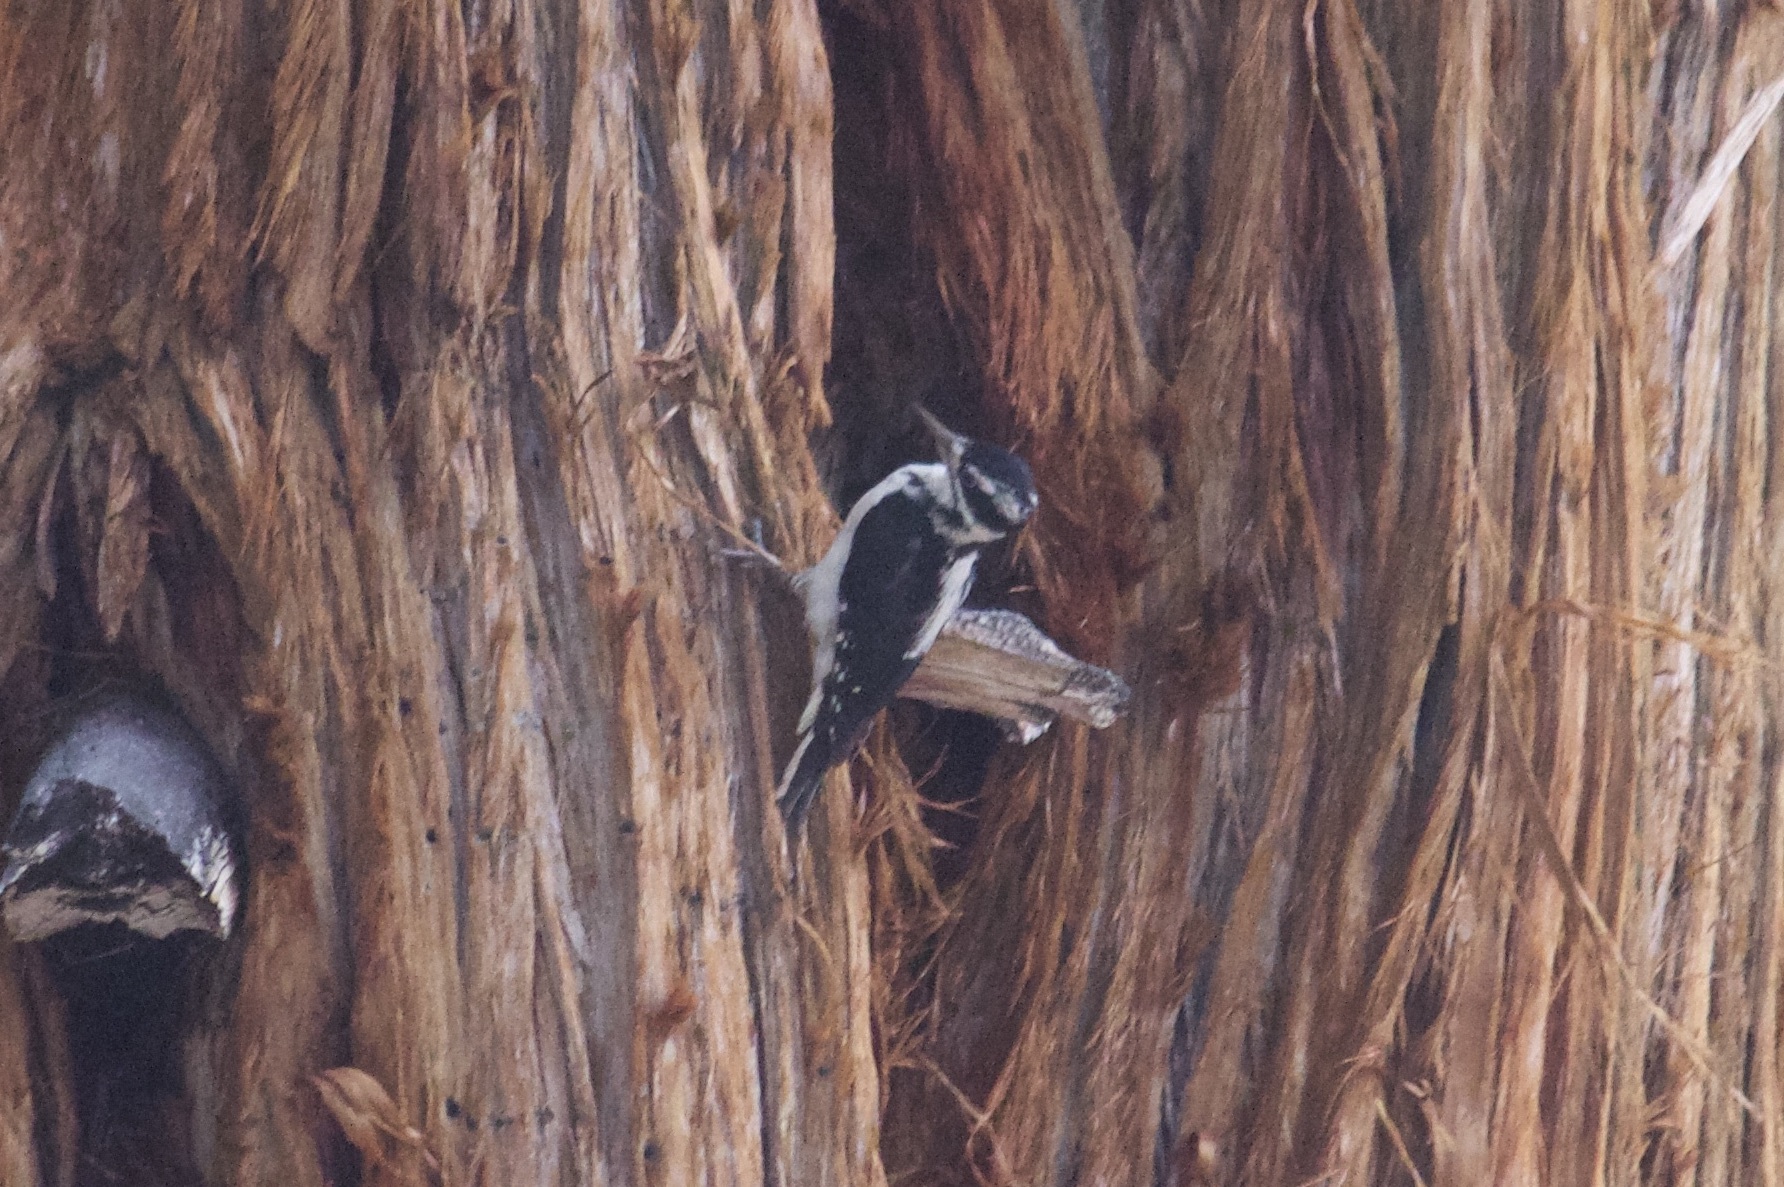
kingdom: Animalia
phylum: Chordata
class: Aves
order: Piciformes
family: Picidae
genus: Leuconotopicus
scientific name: Leuconotopicus villosus
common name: Hairy woodpecker
